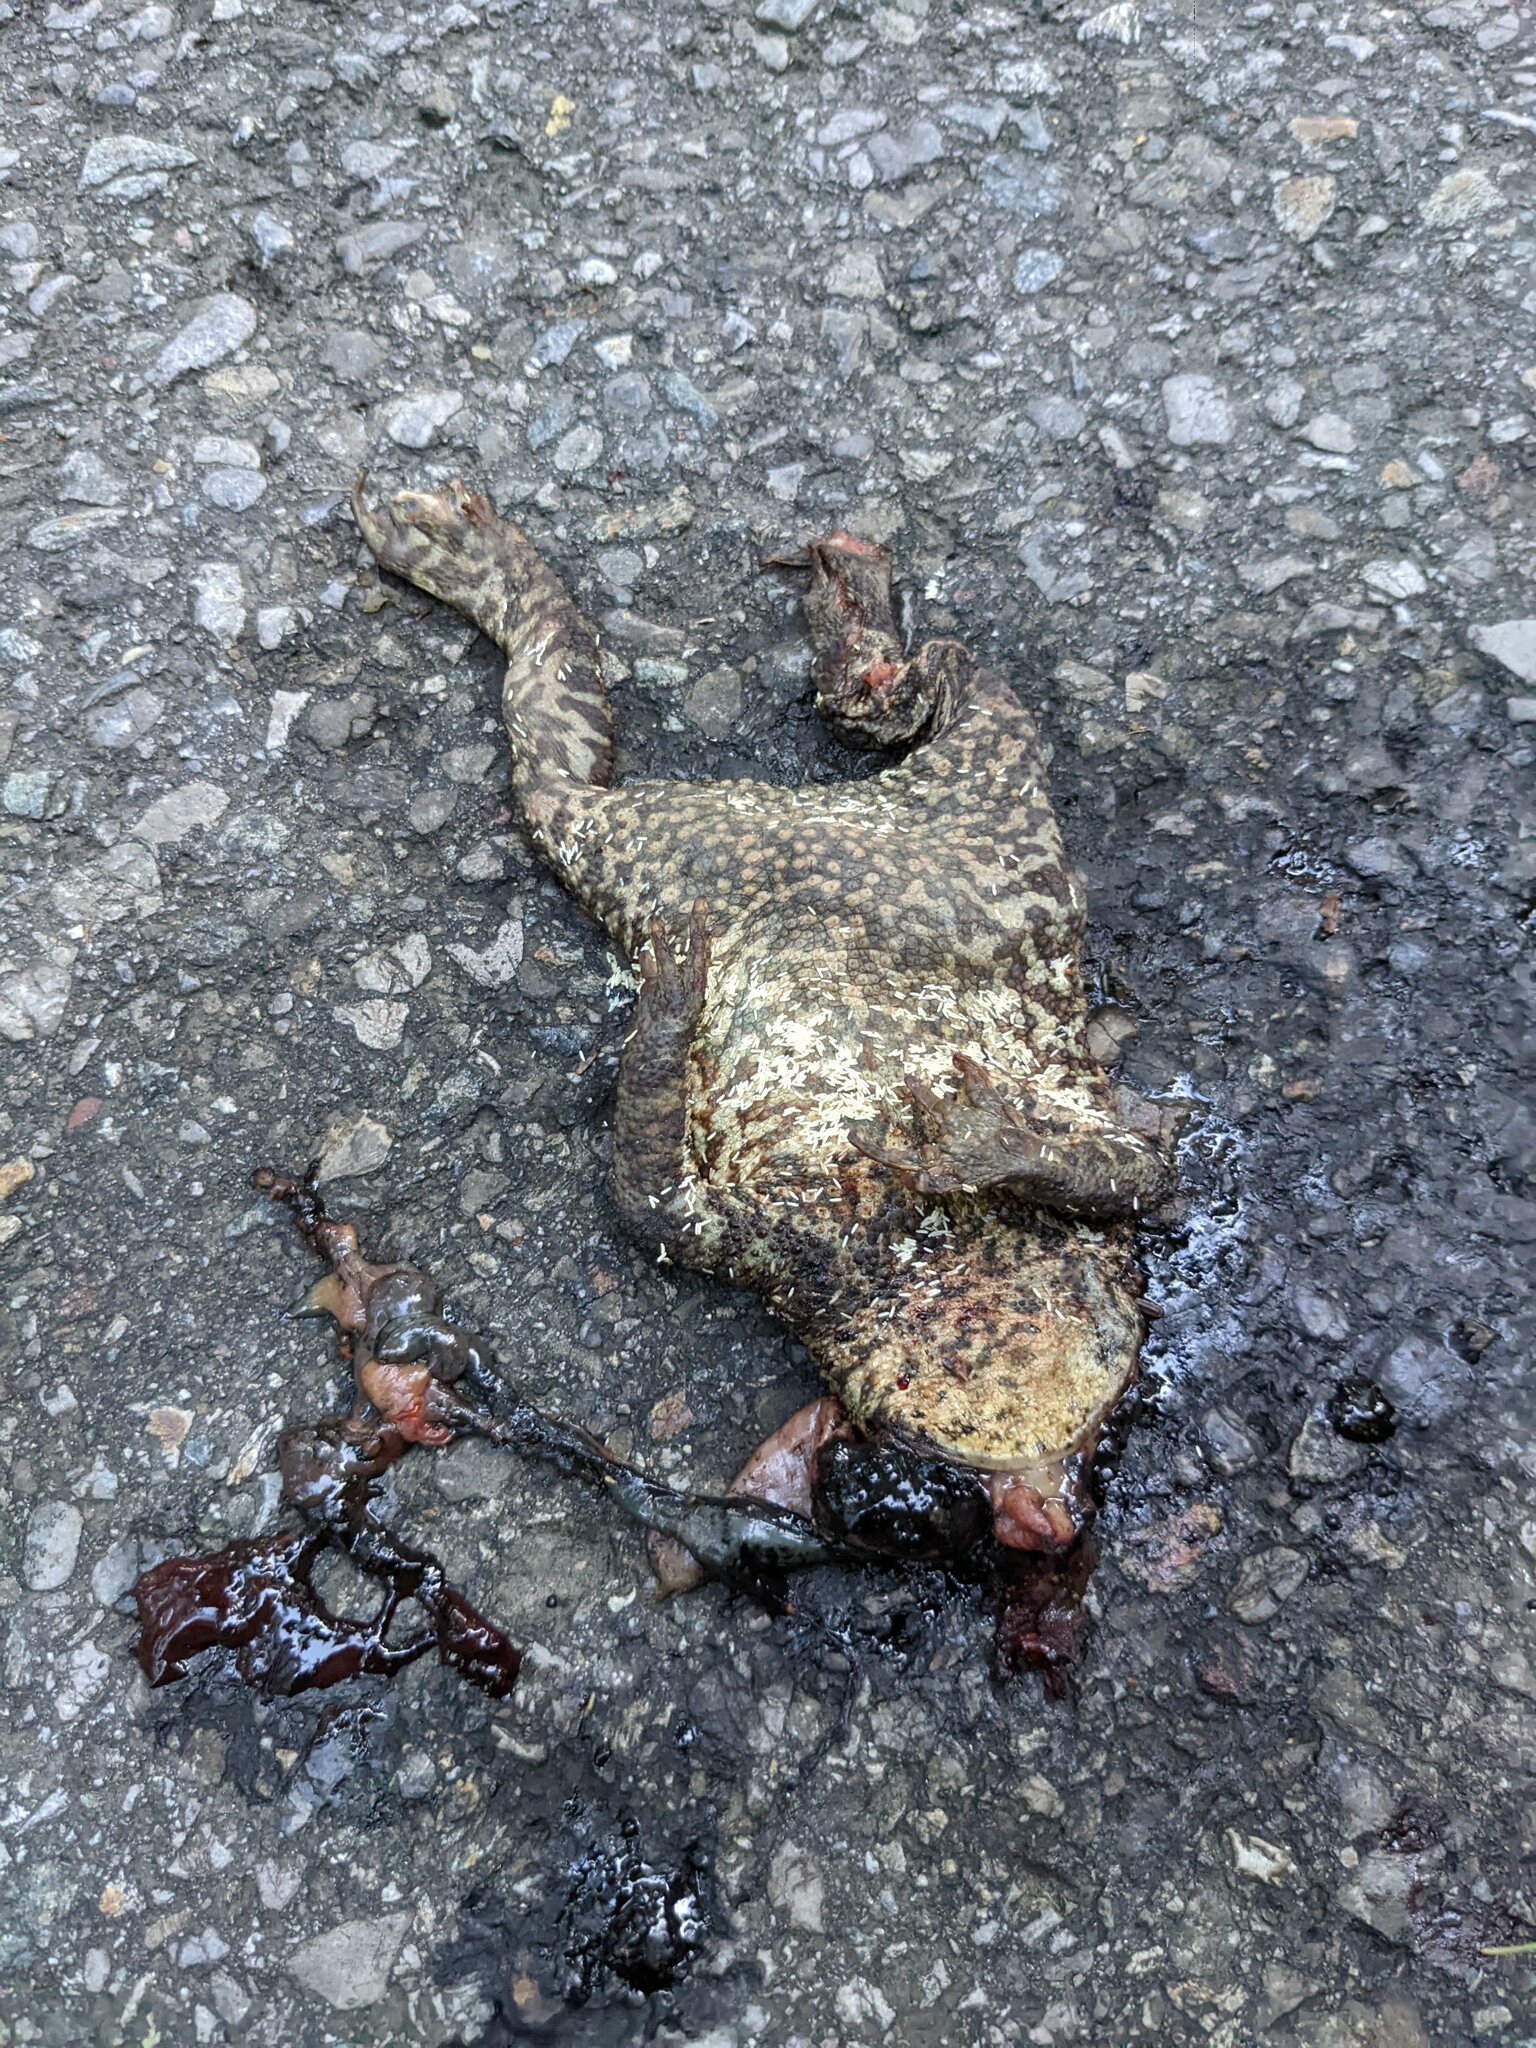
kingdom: Animalia
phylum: Chordata
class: Amphibia
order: Anura
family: Bufonidae
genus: Bufo
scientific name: Bufo bufo
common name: Common toad
